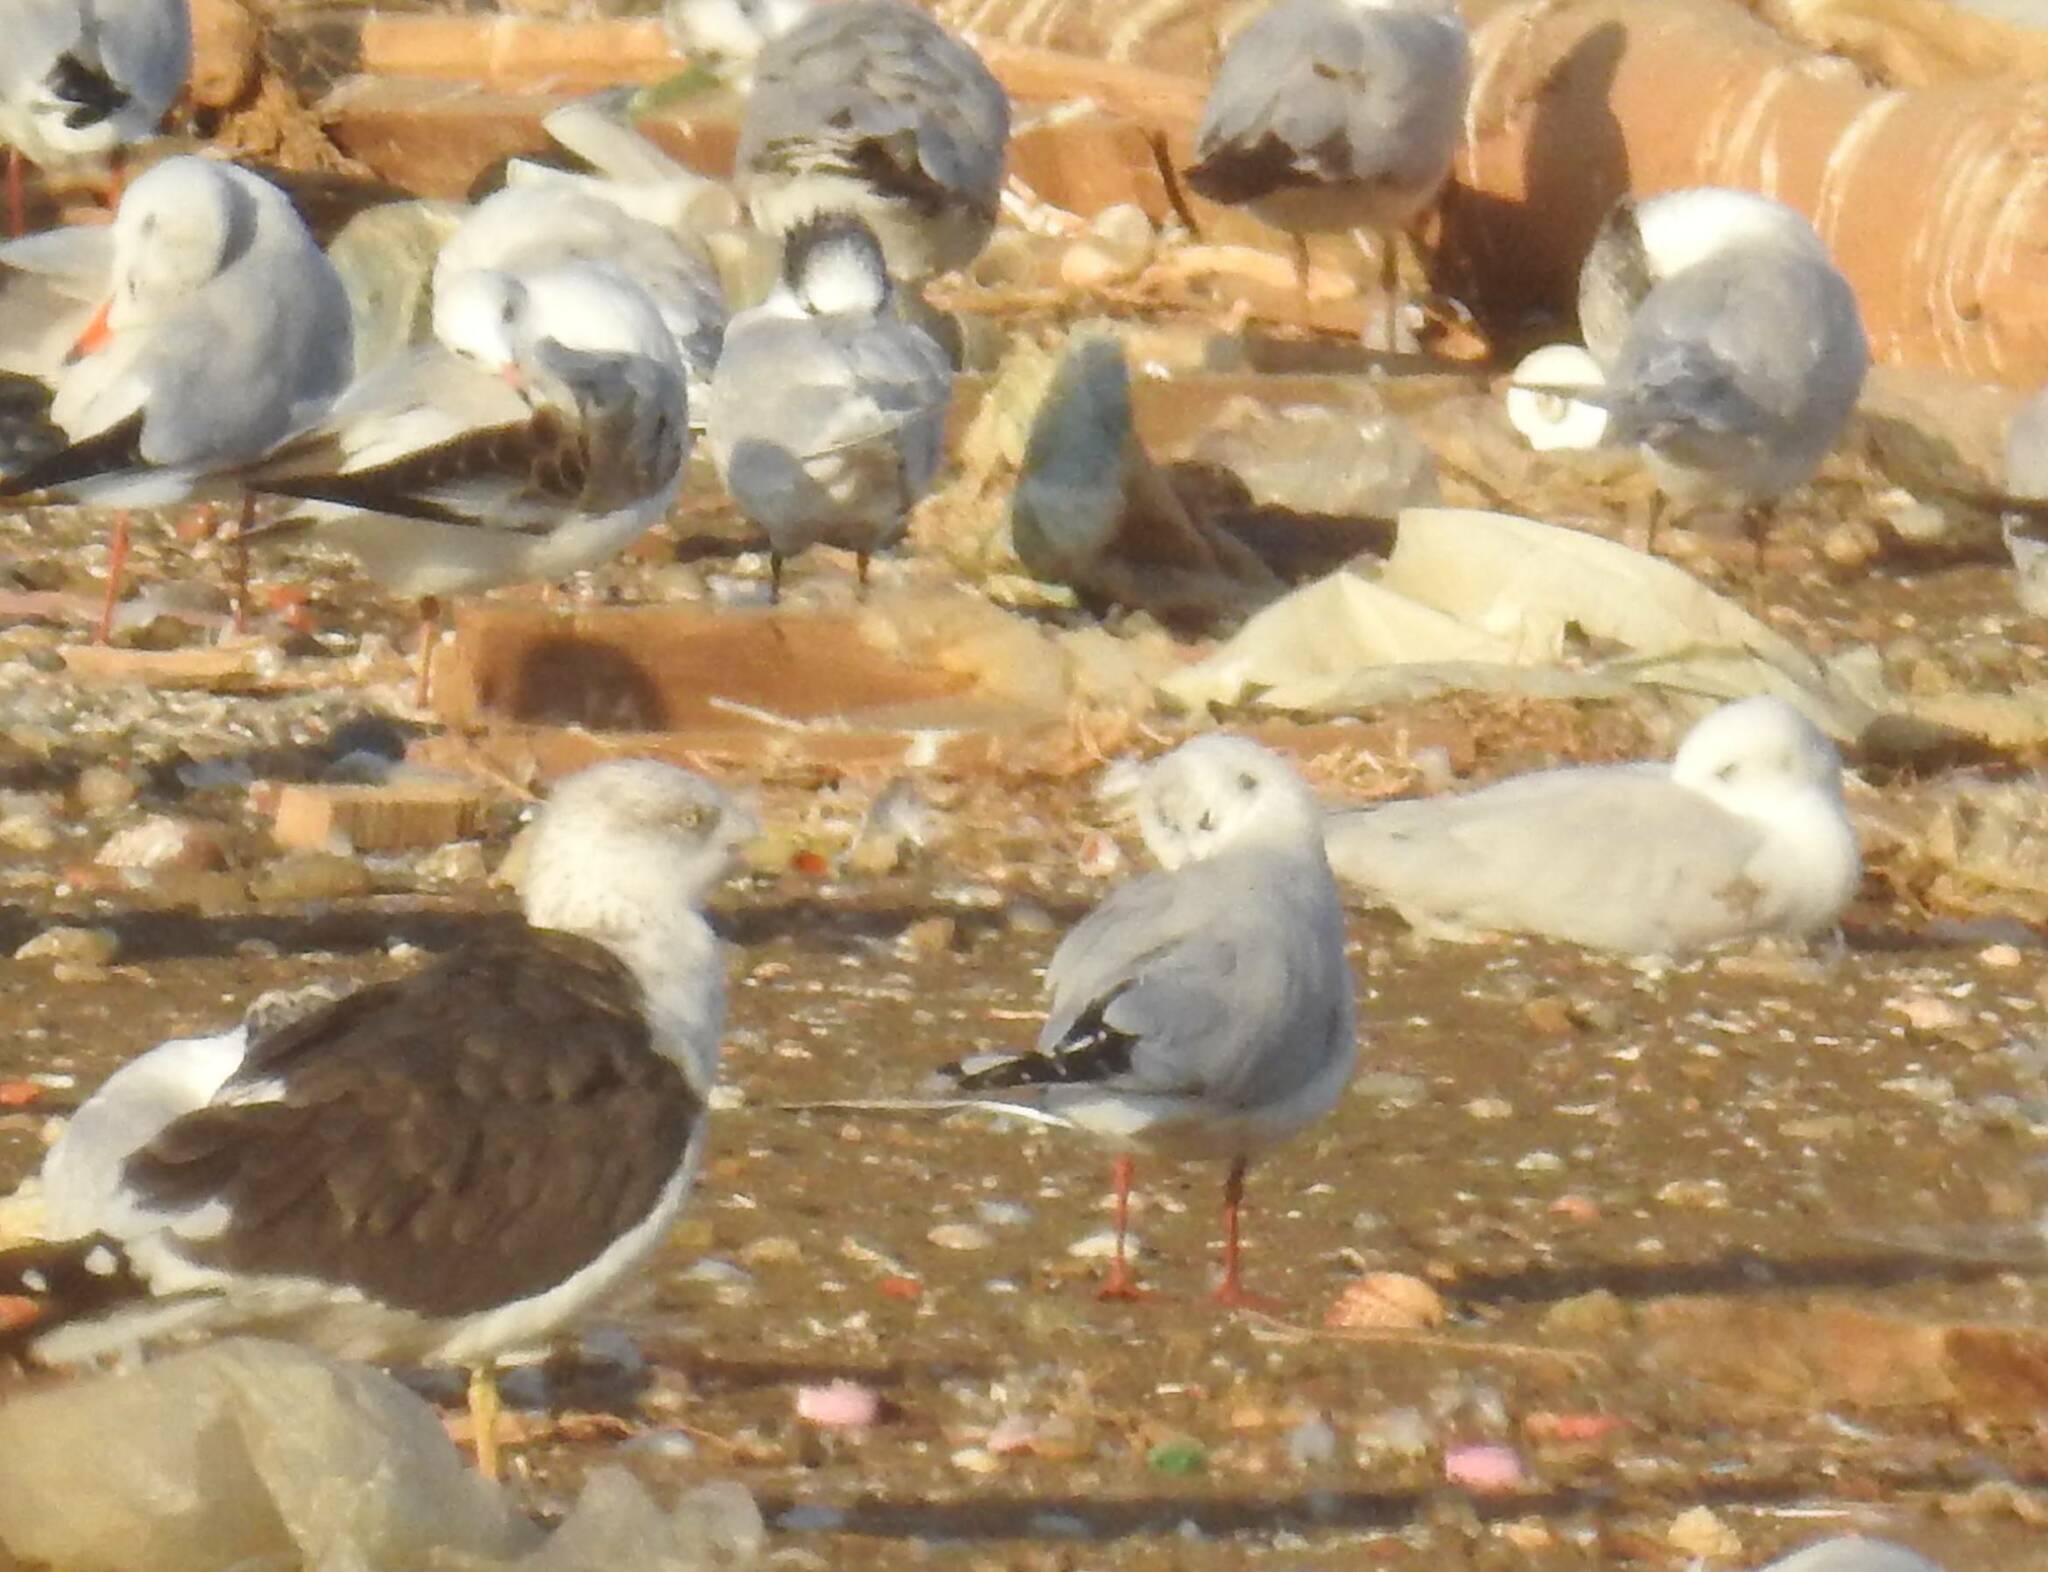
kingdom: Animalia
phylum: Chordata
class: Aves
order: Charadriiformes
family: Laridae
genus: Larus
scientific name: Larus fuscus
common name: Lesser black-backed gull
